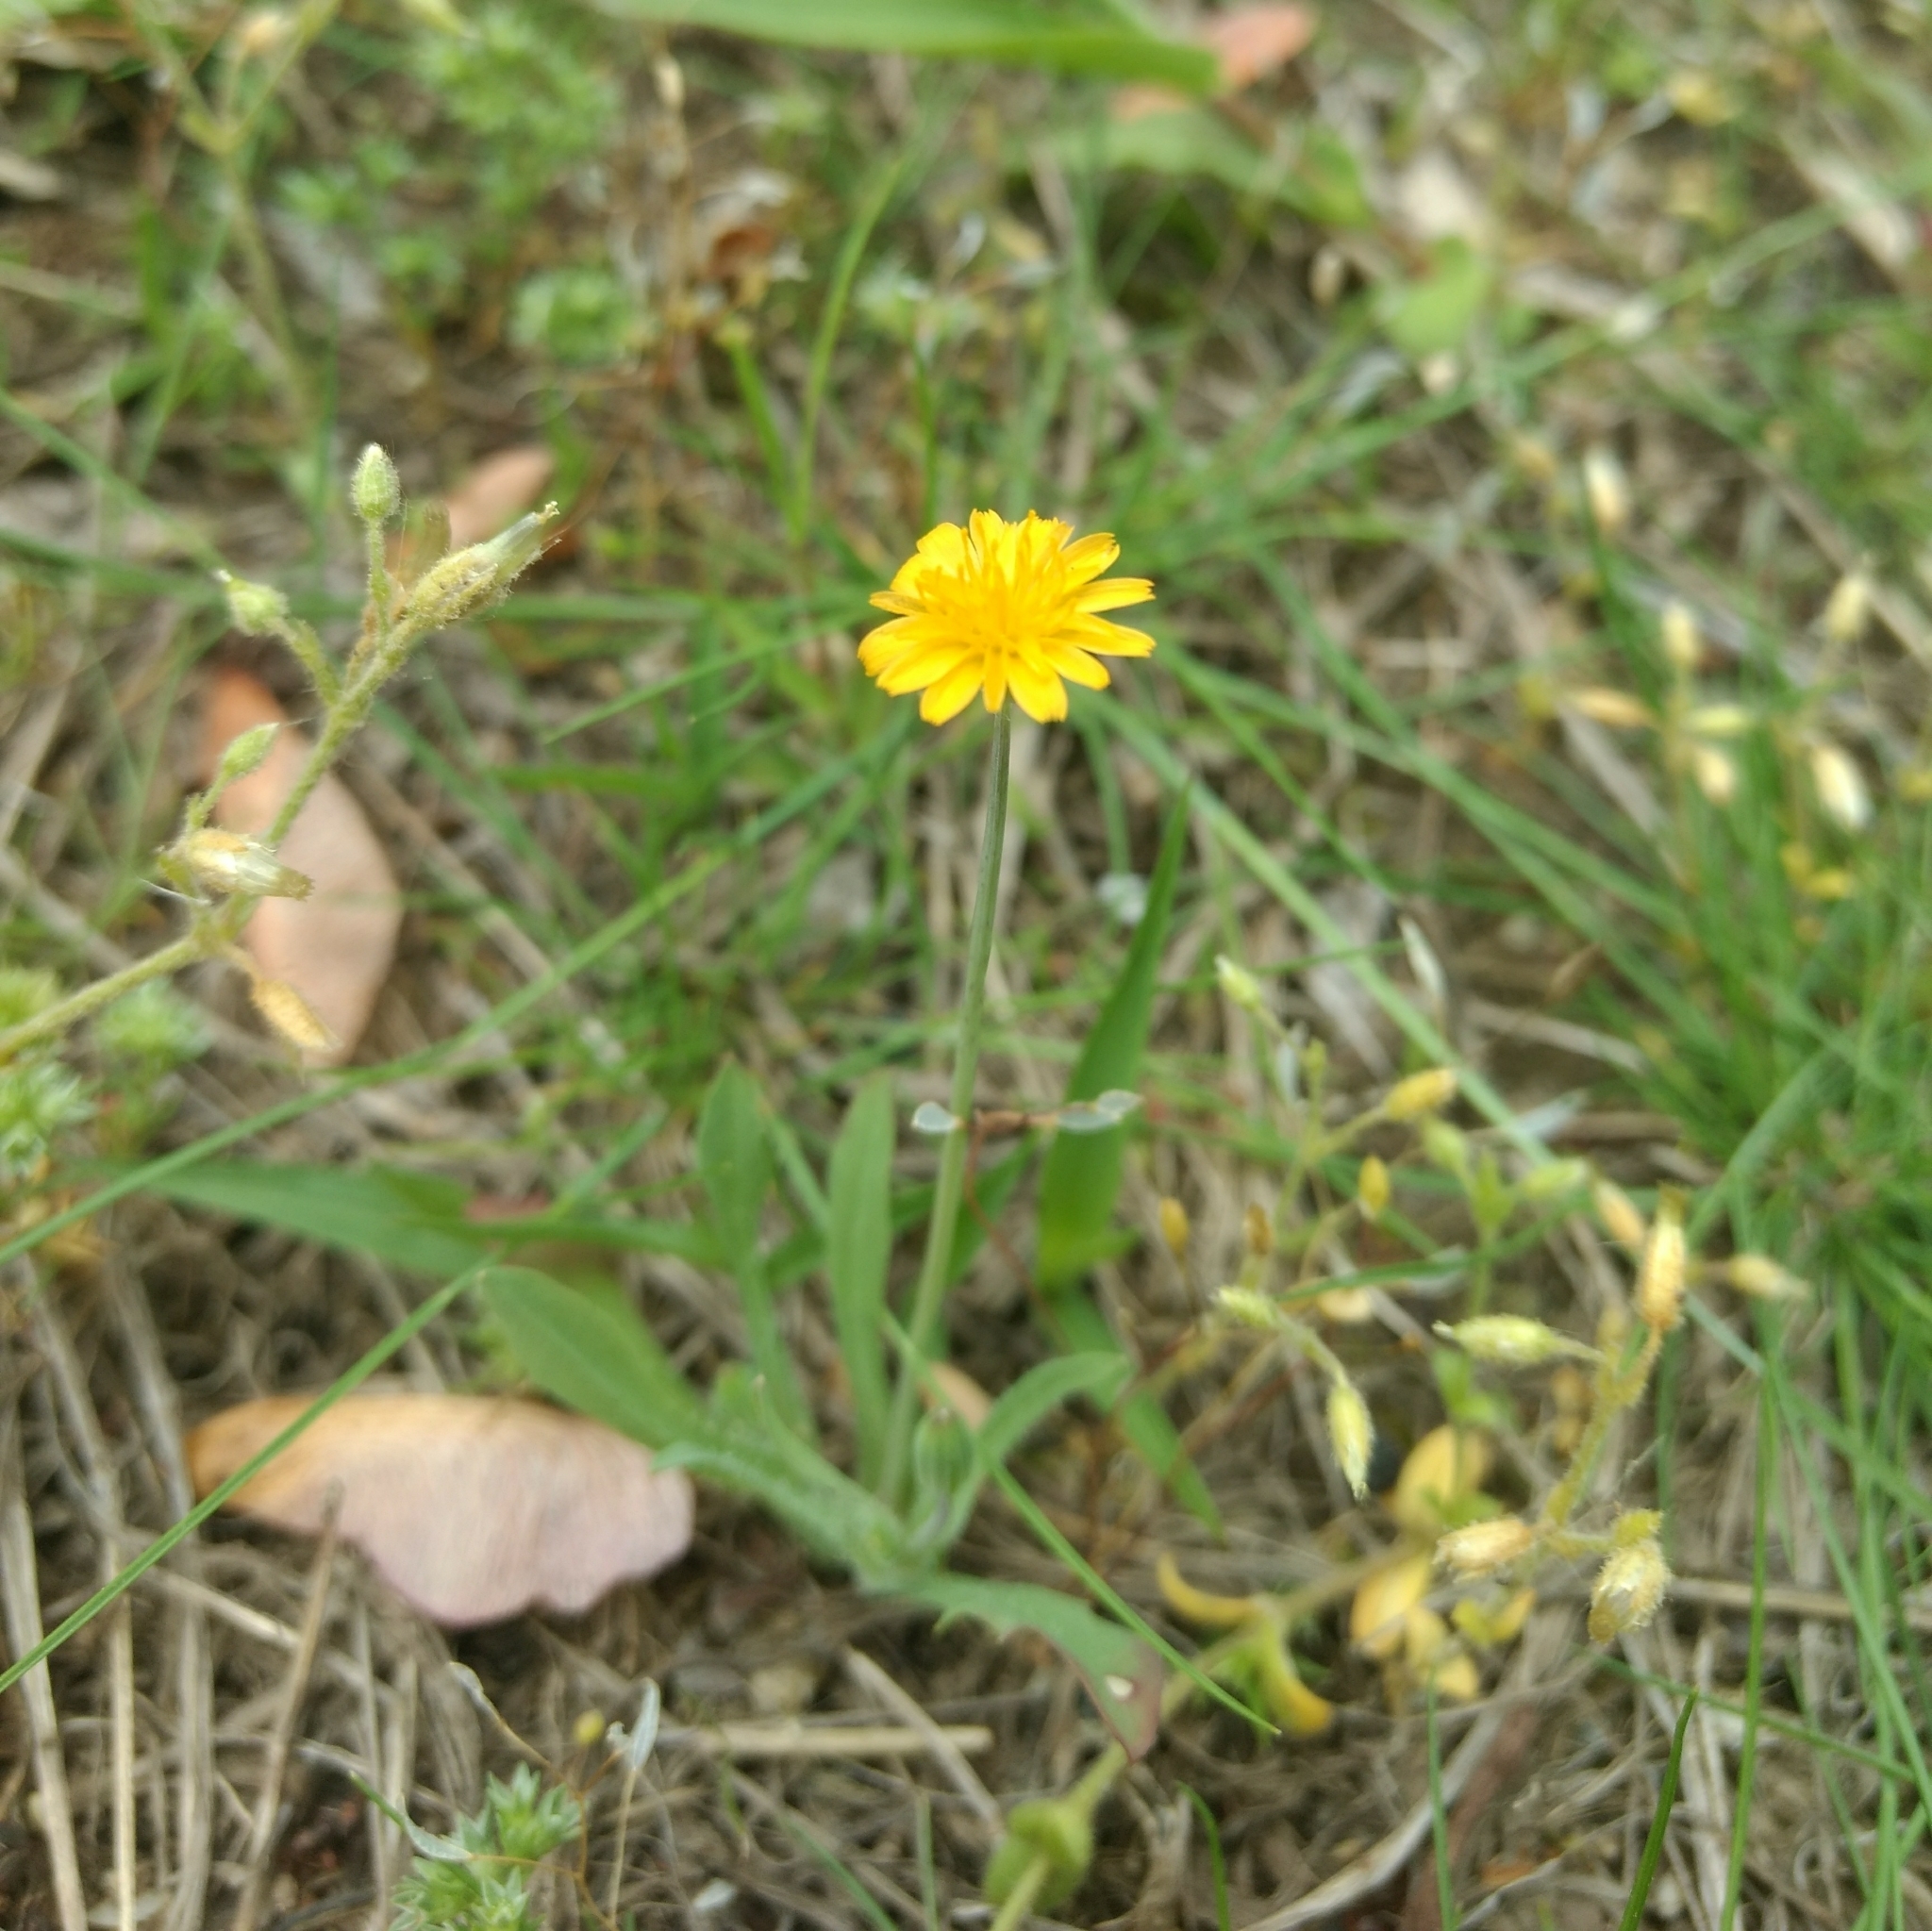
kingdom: Plantae
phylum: Tracheophyta
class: Magnoliopsida
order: Asterales
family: Asteraceae
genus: Krigia
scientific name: Krigia virginica
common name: Virginia dwarf-dandelion
